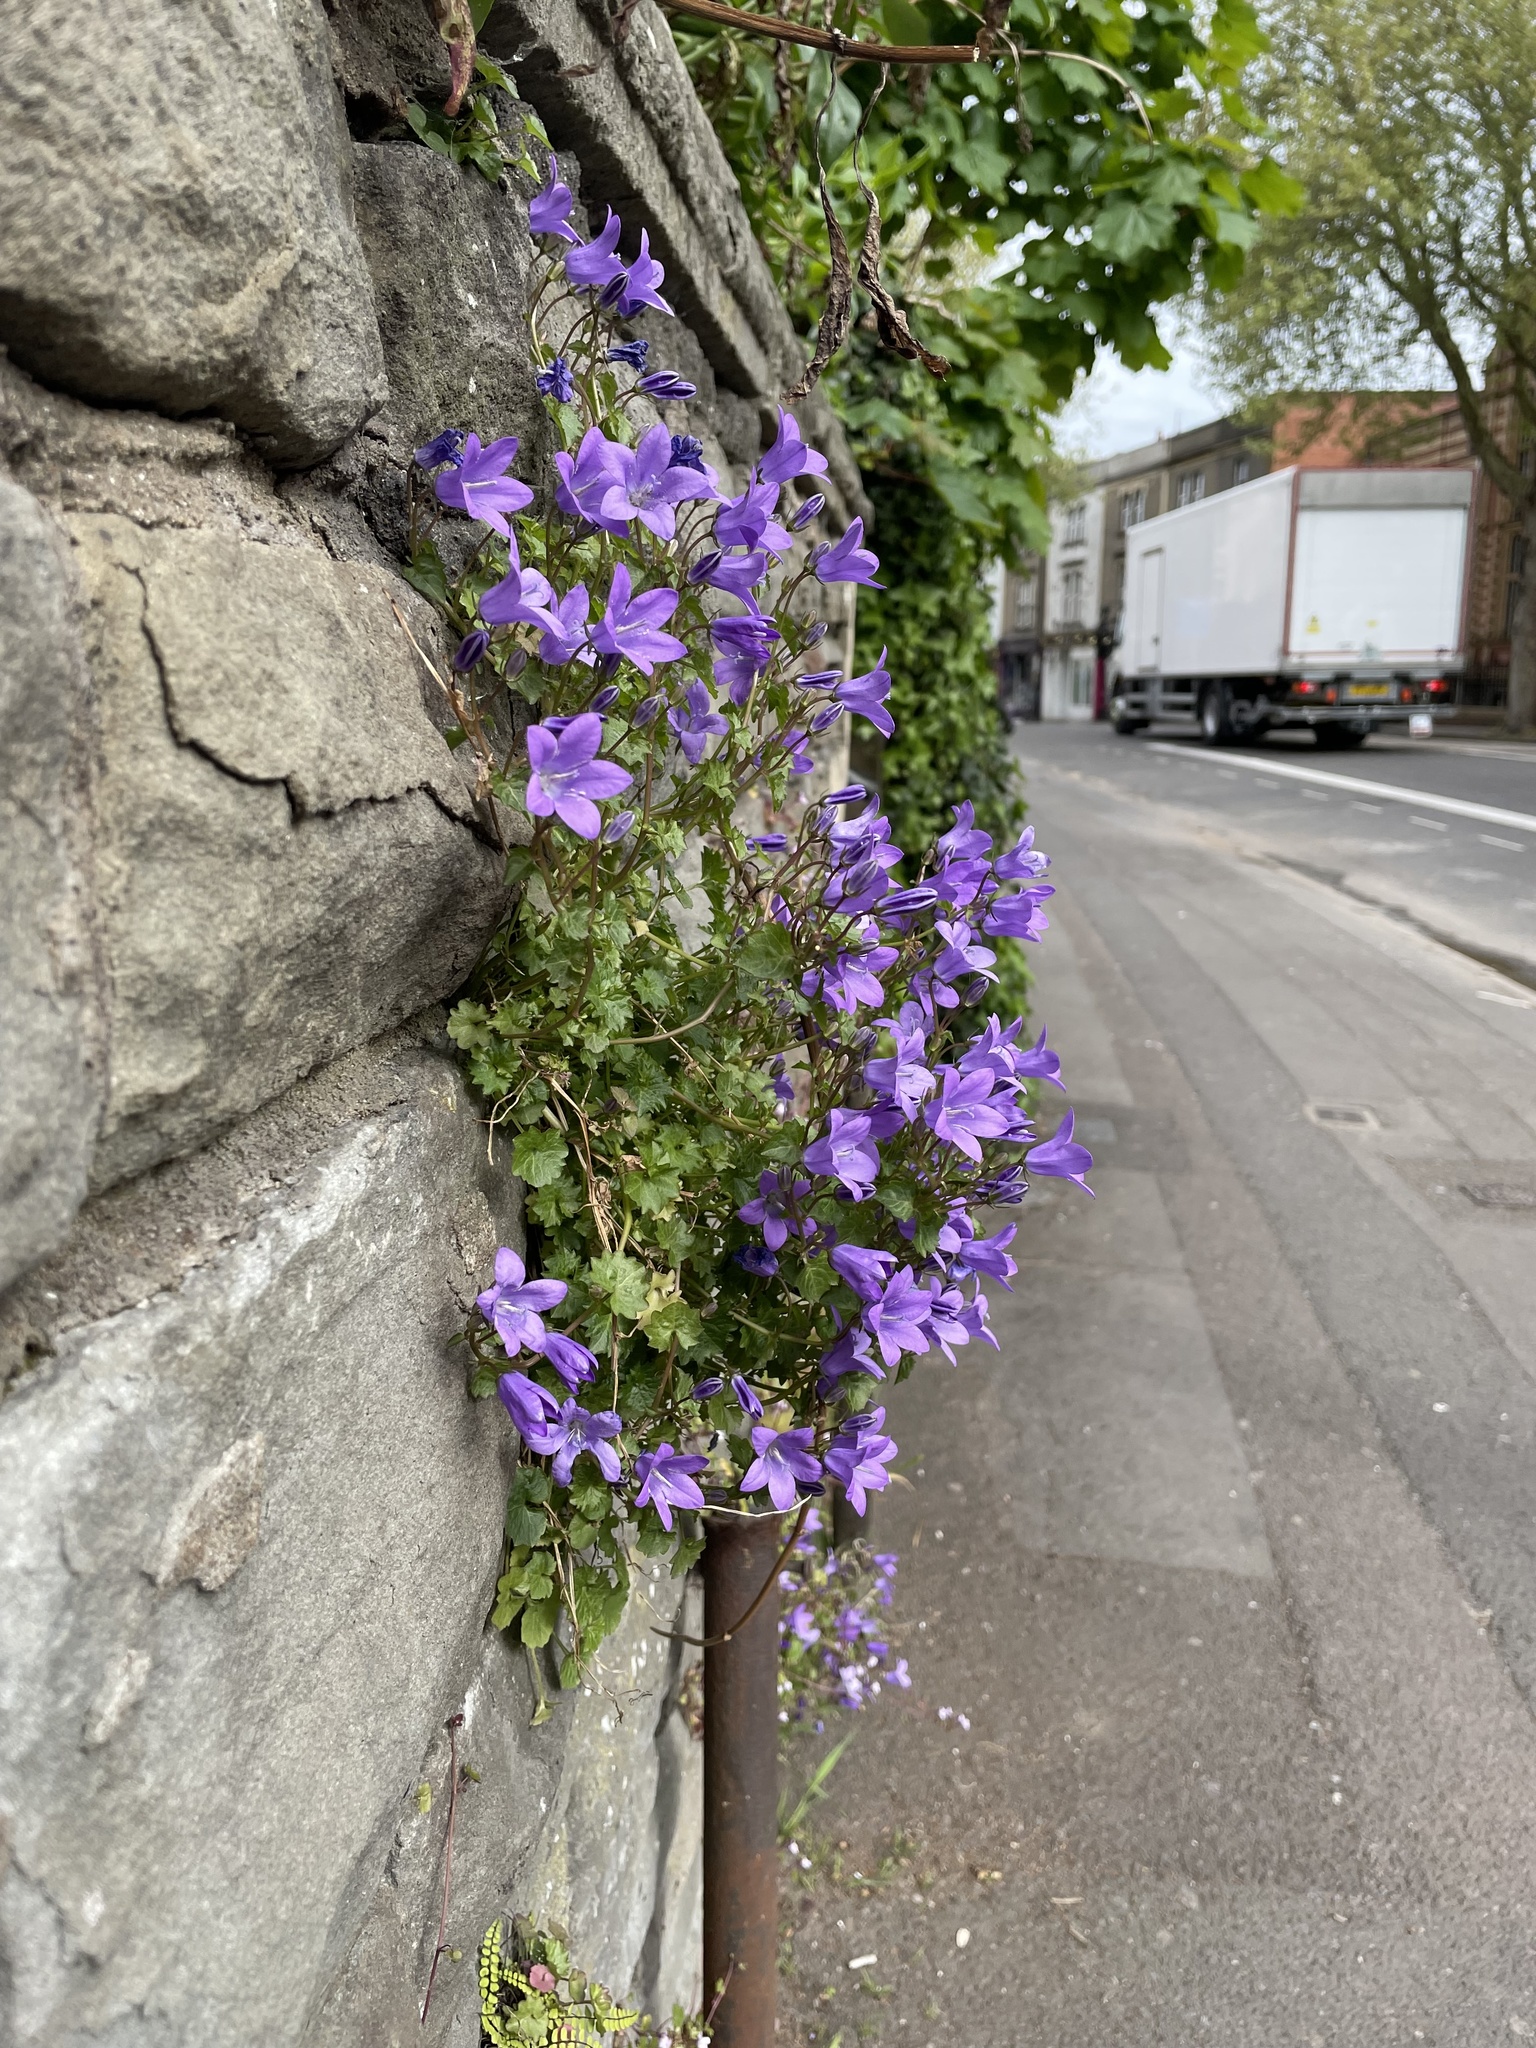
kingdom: Plantae
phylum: Tracheophyta
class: Magnoliopsida
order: Asterales
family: Campanulaceae
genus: Campanula
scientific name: Campanula portenschlagiana
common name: Adria bellflower
